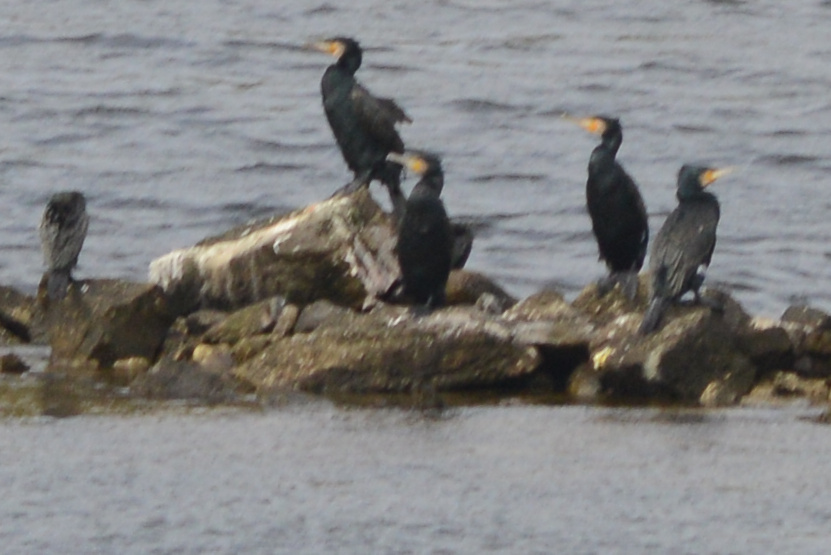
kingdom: Animalia
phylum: Chordata
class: Aves
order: Suliformes
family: Phalacrocoracidae
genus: Phalacrocorax
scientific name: Phalacrocorax carbo
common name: Great cormorant
